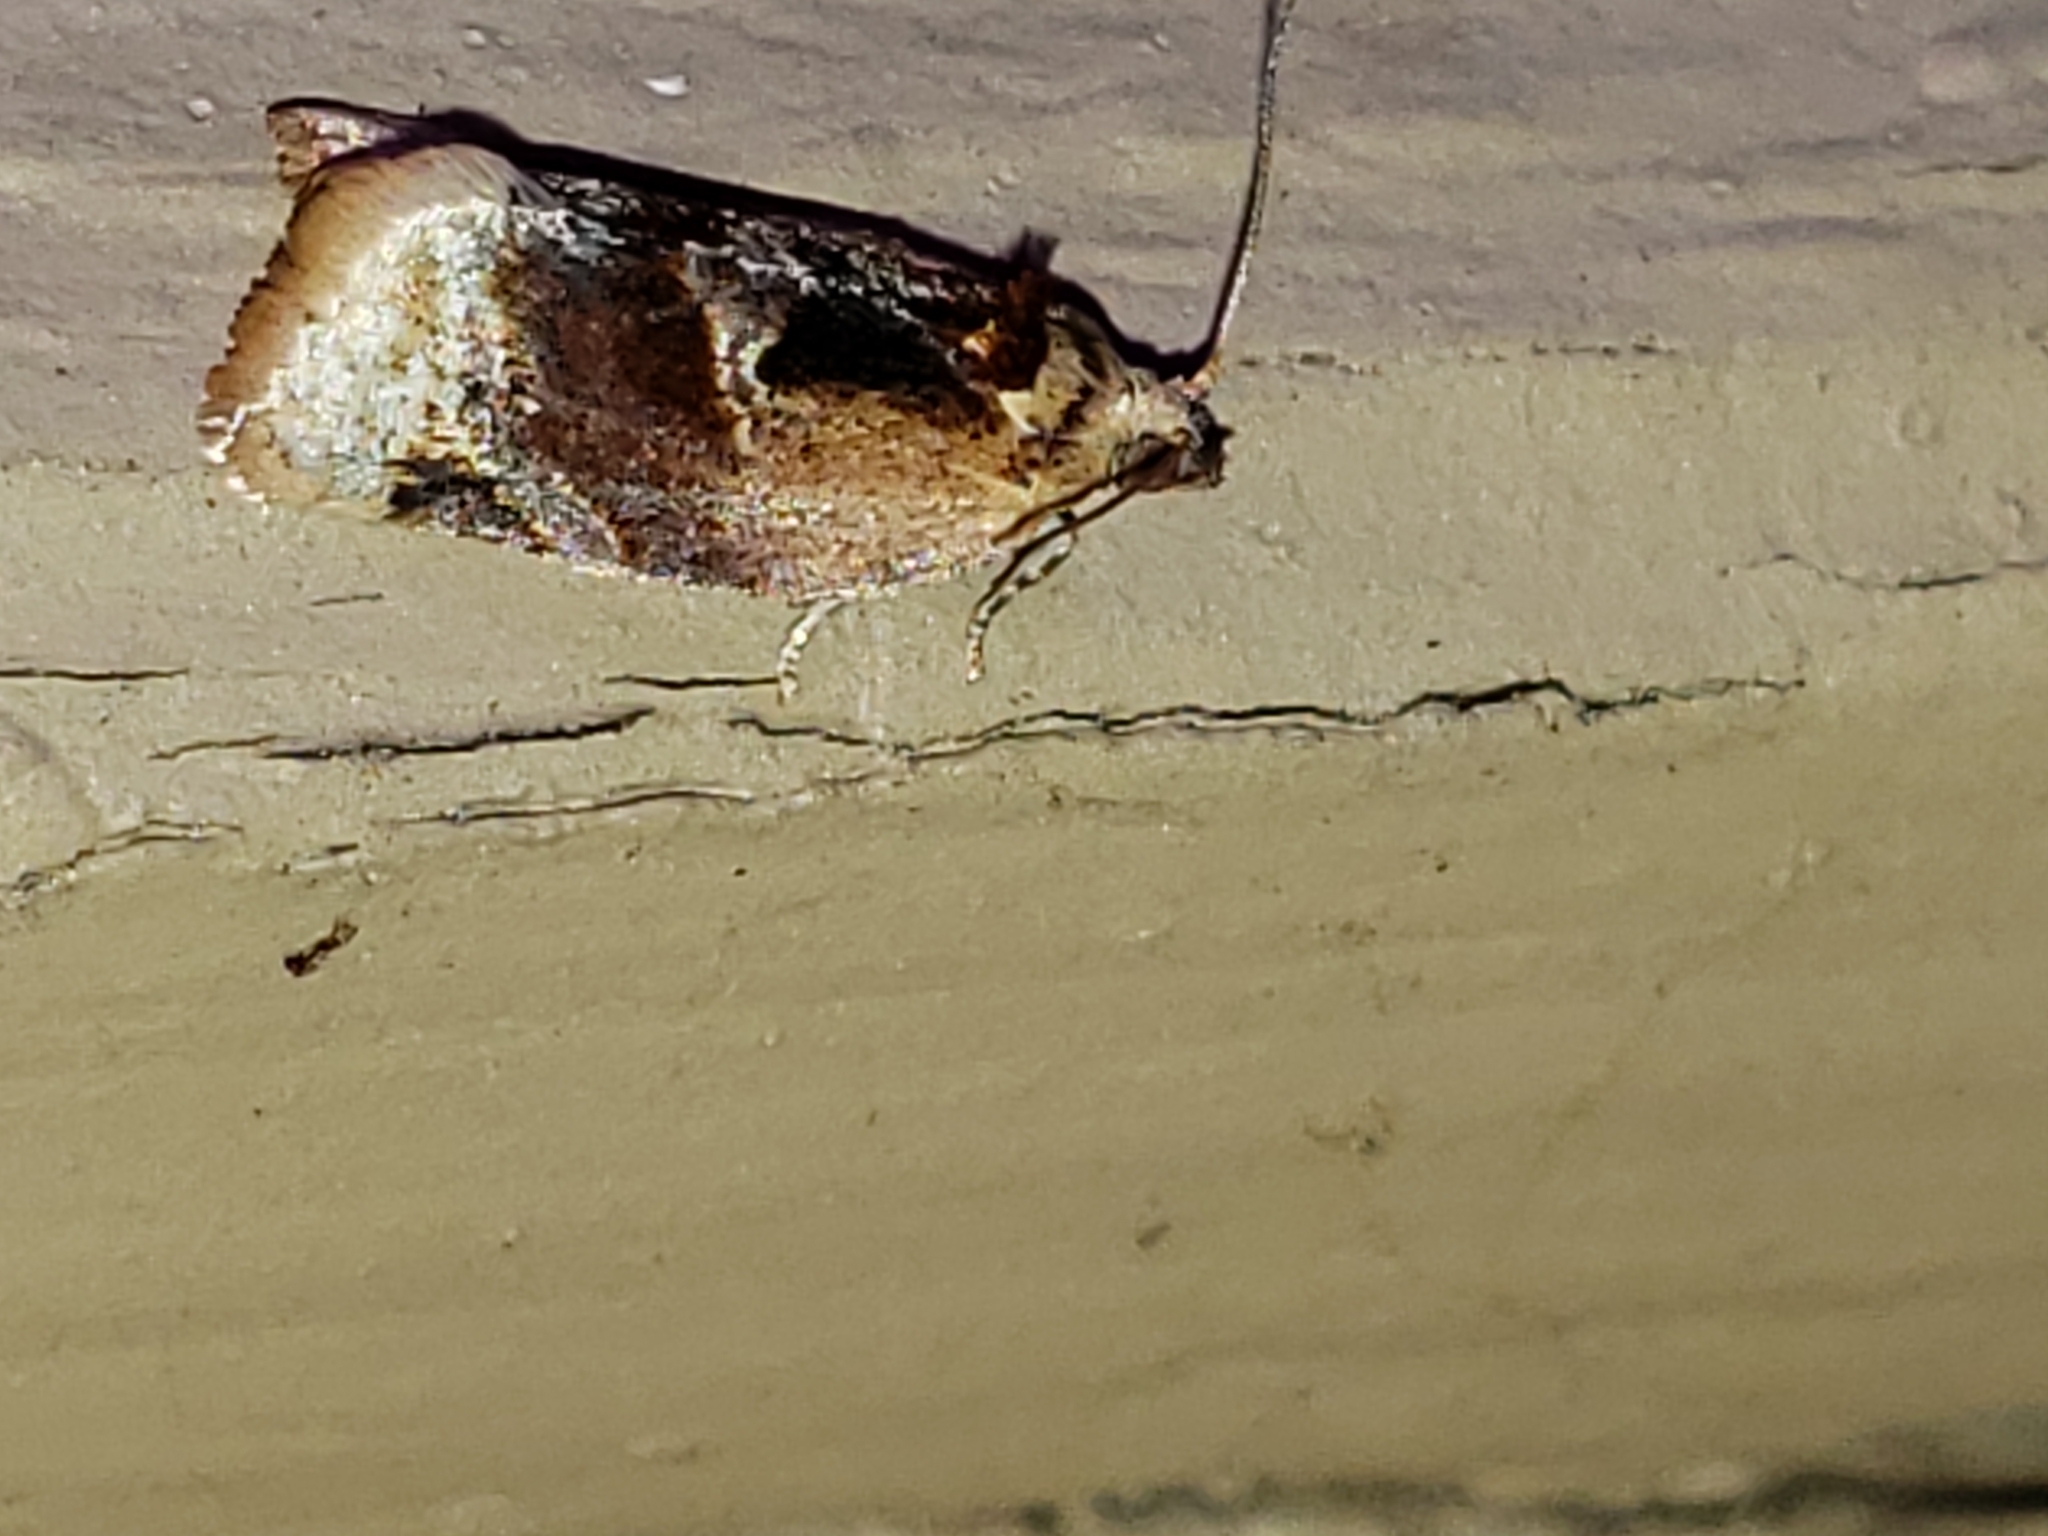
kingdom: Animalia
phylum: Arthropoda
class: Insecta
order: Lepidoptera
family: Tortricidae
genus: Argyrotaenia
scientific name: Argyrotaenia velutinana
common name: Red-banded leafroller moth
